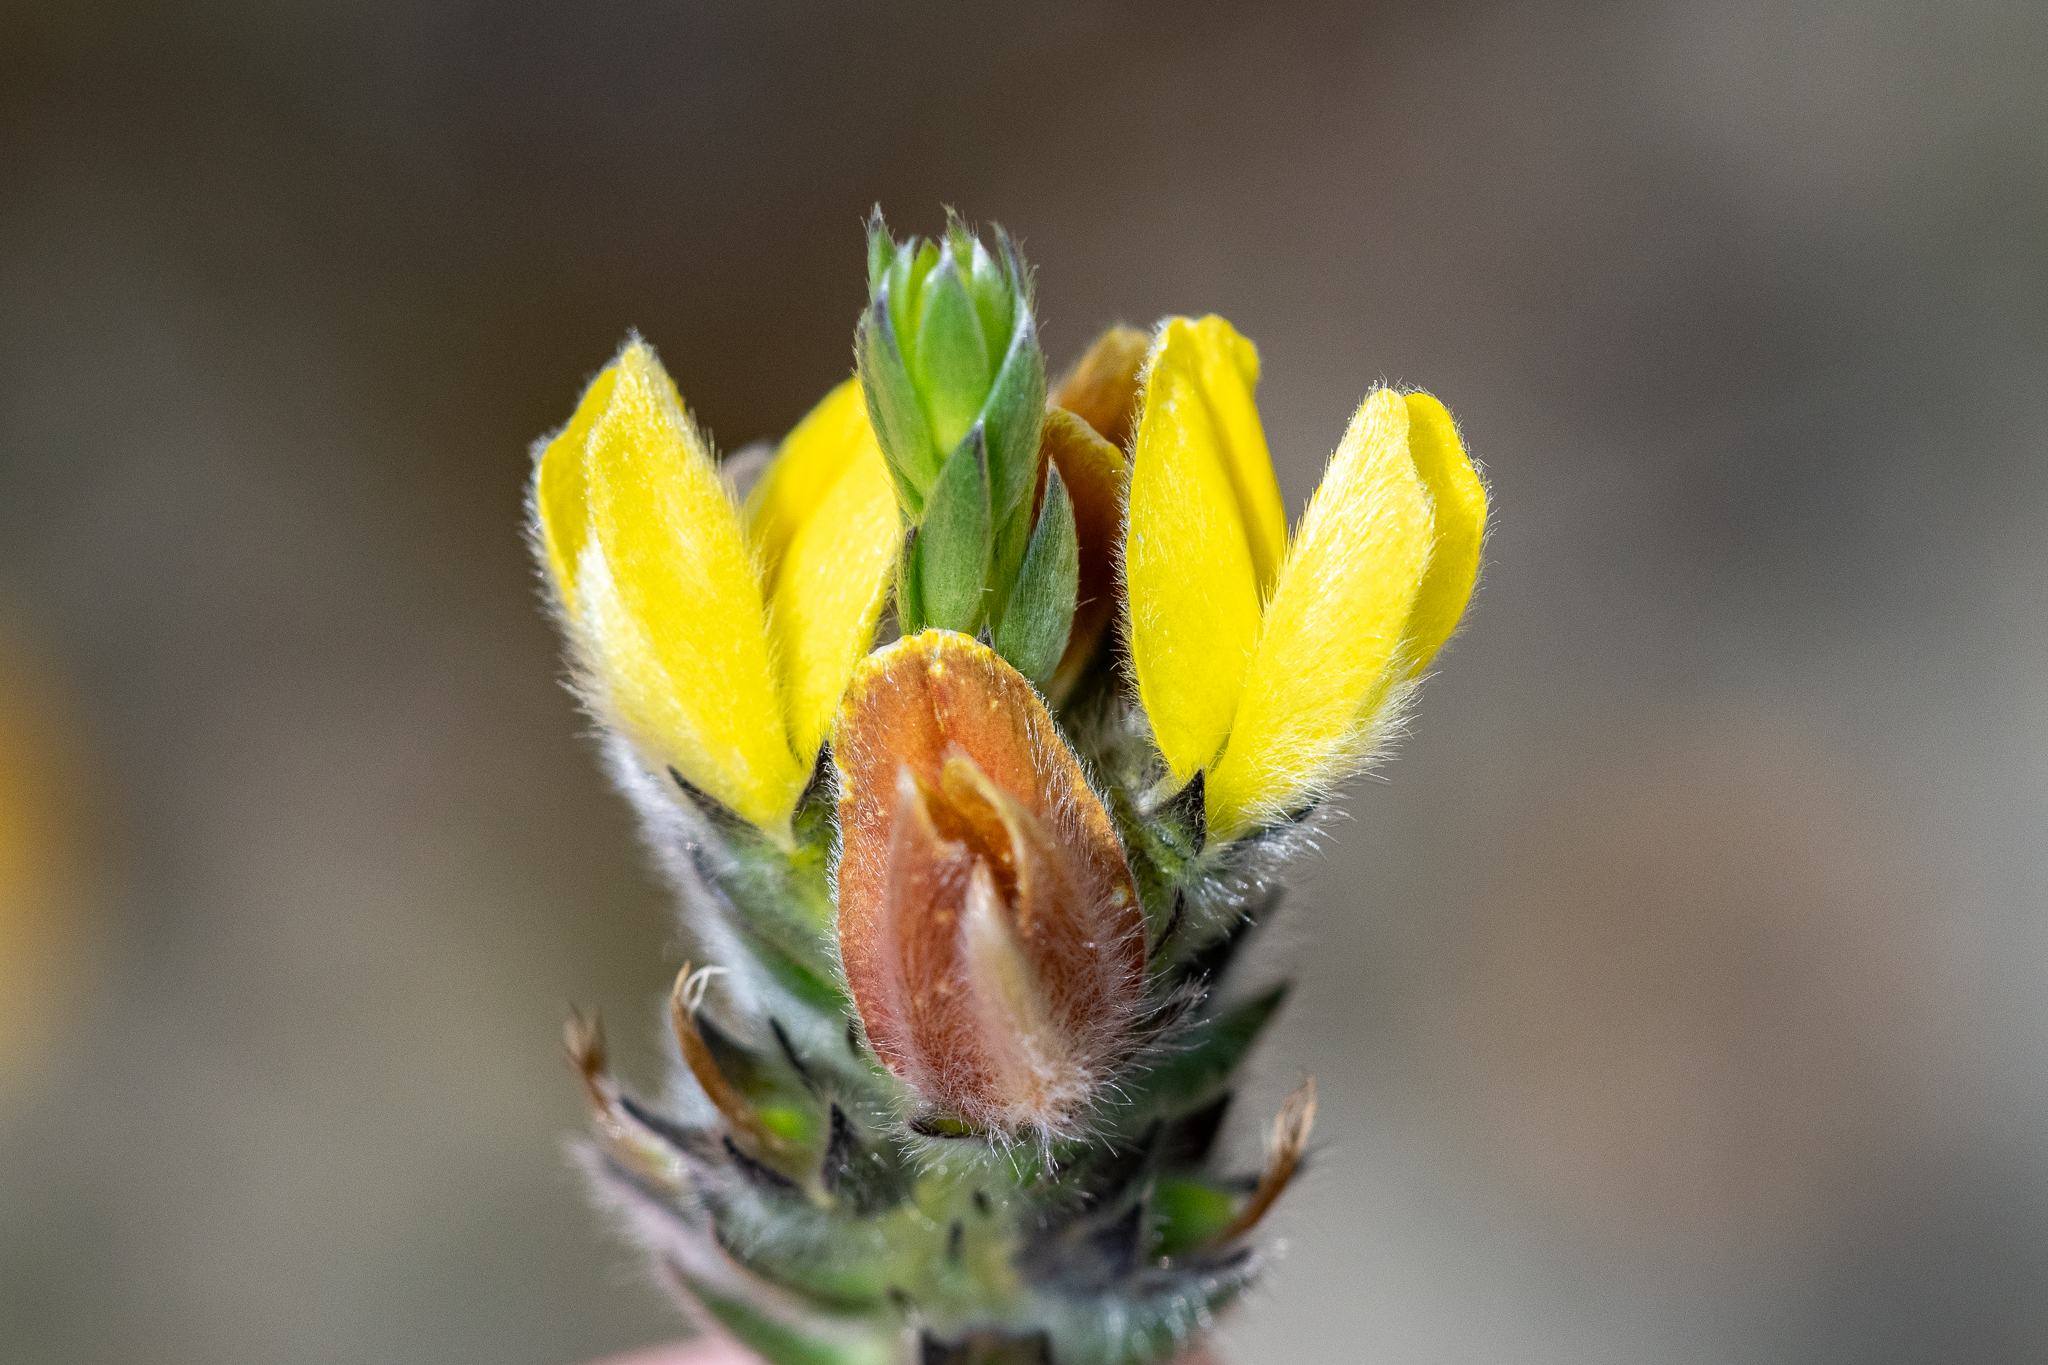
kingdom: Plantae
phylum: Tracheophyta
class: Magnoliopsida
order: Fabales
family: Fabaceae
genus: Aspalathus
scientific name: Aspalathus sericea
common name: Silky pea
